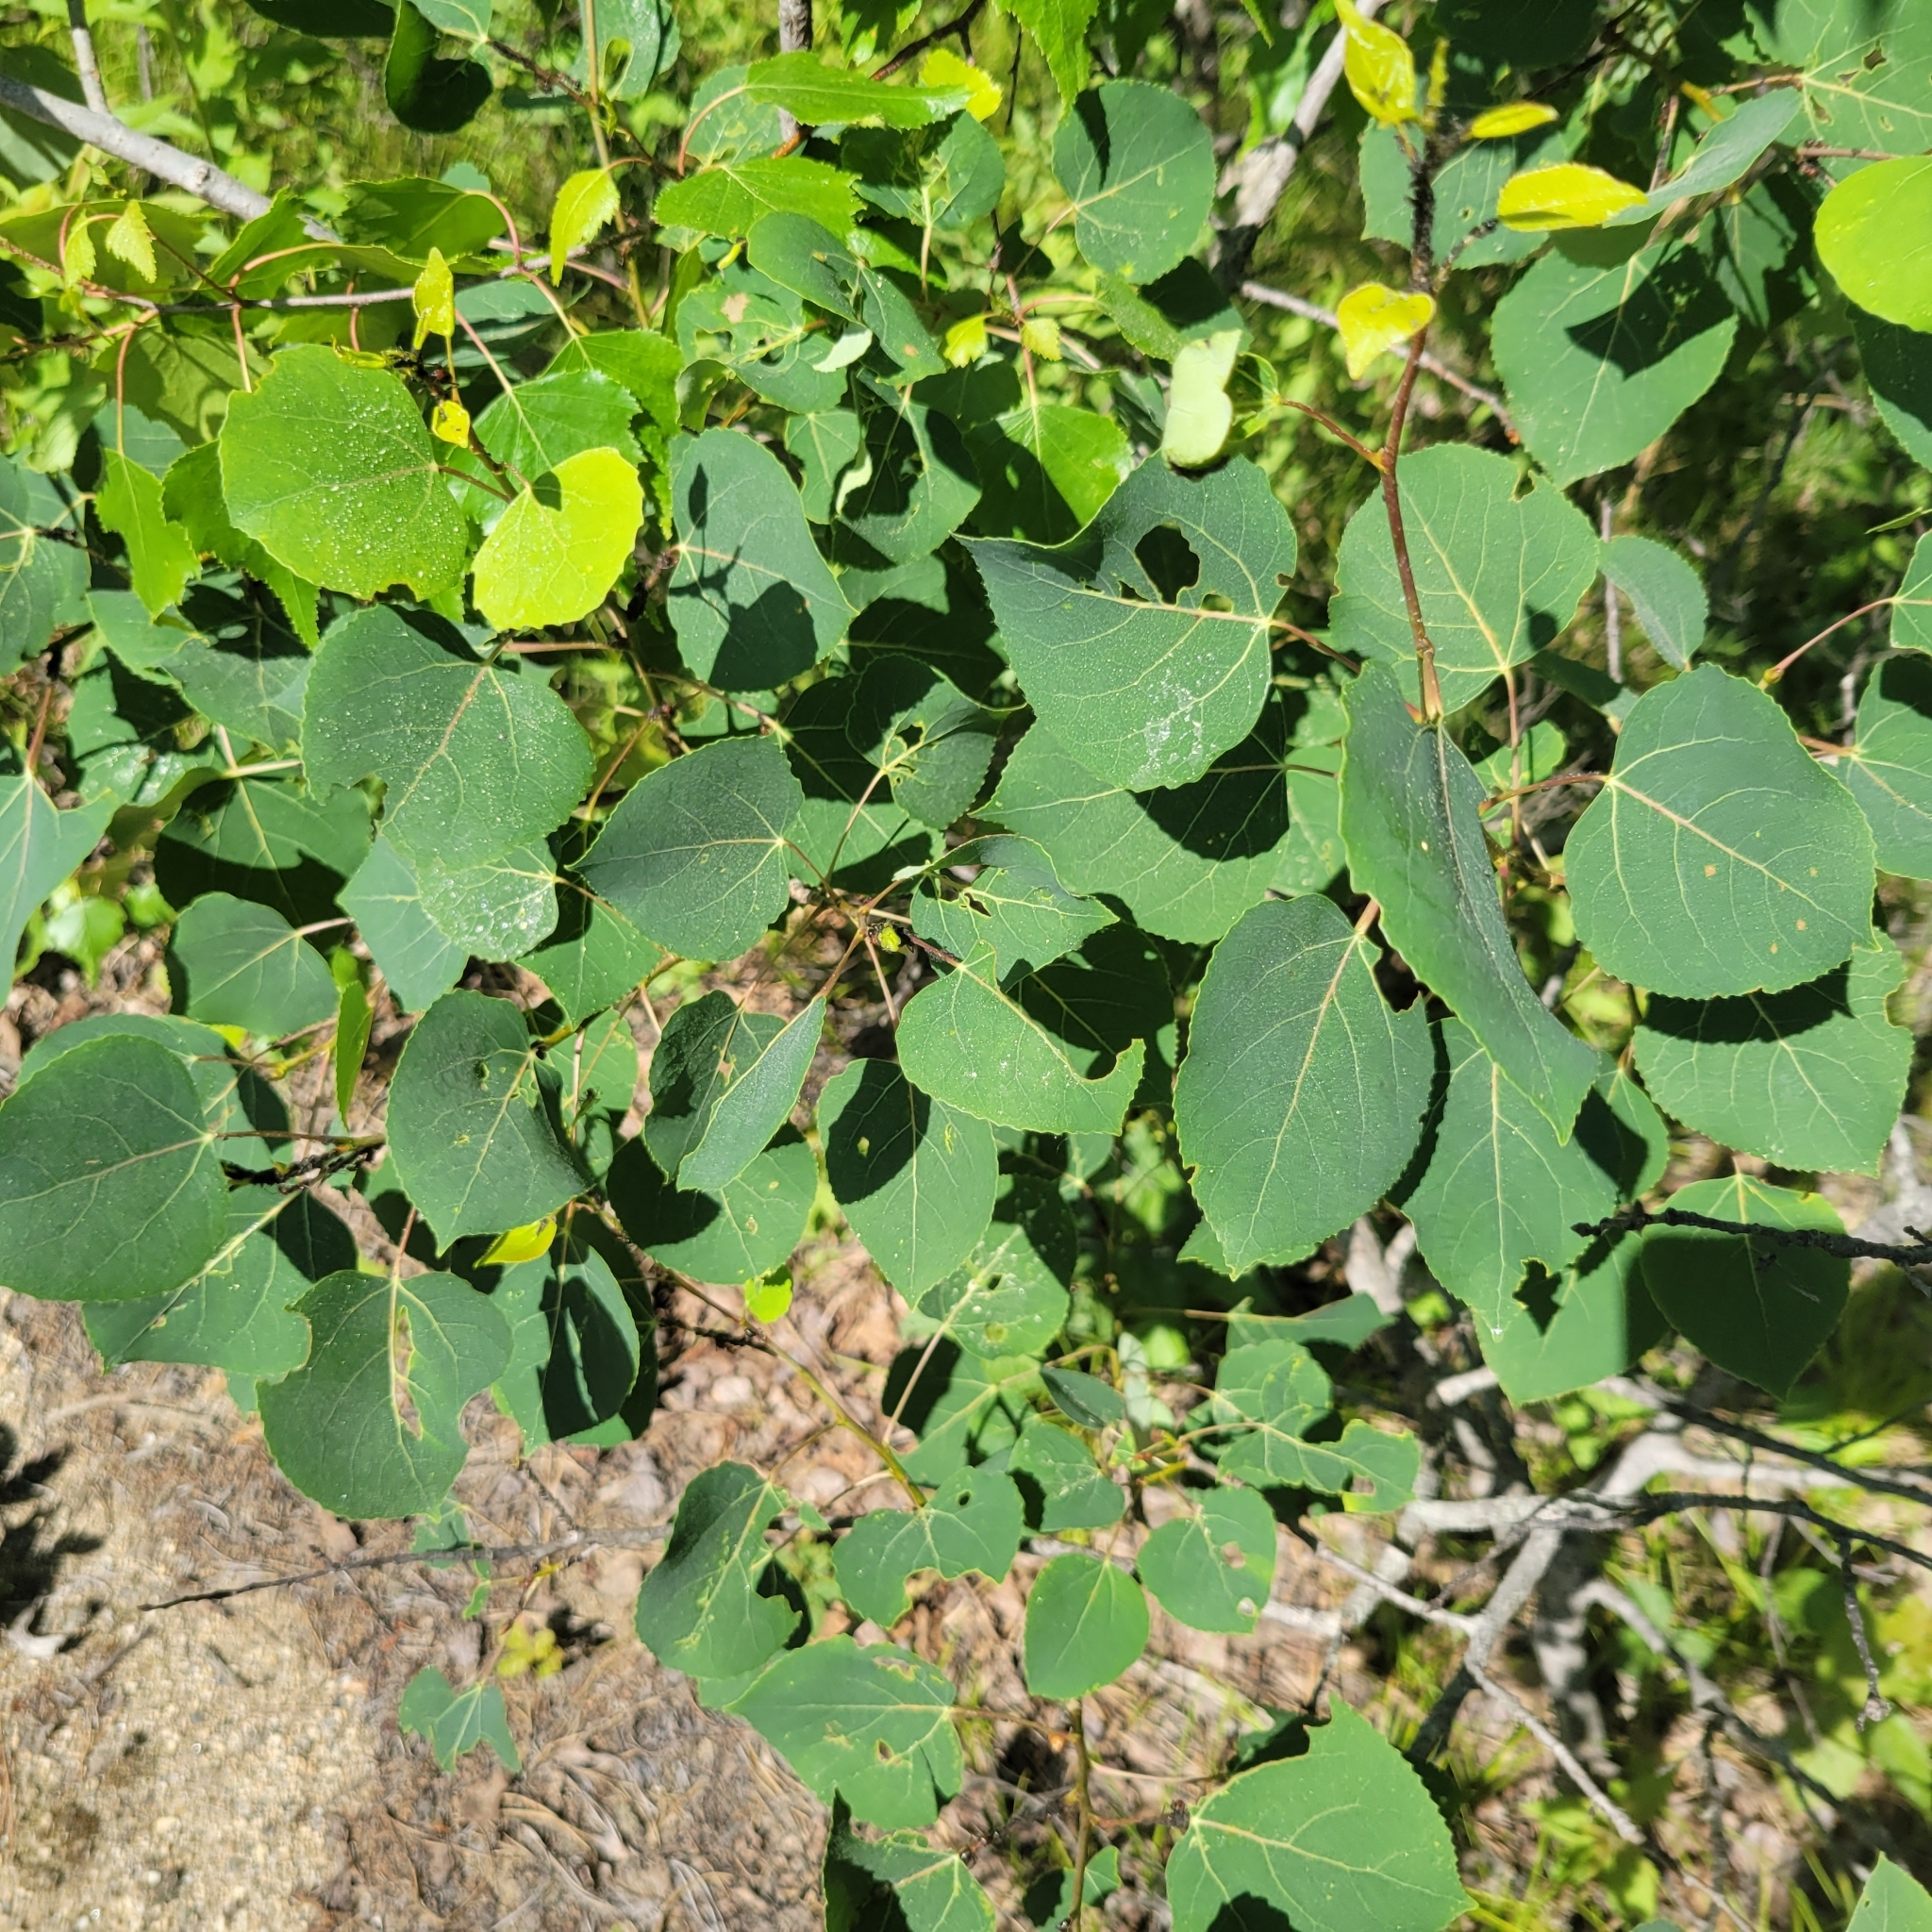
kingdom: Plantae
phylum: Tracheophyta
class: Magnoliopsida
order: Malpighiales
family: Salicaceae
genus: Populus
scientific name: Populus tremuloides
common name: Quaking aspen
